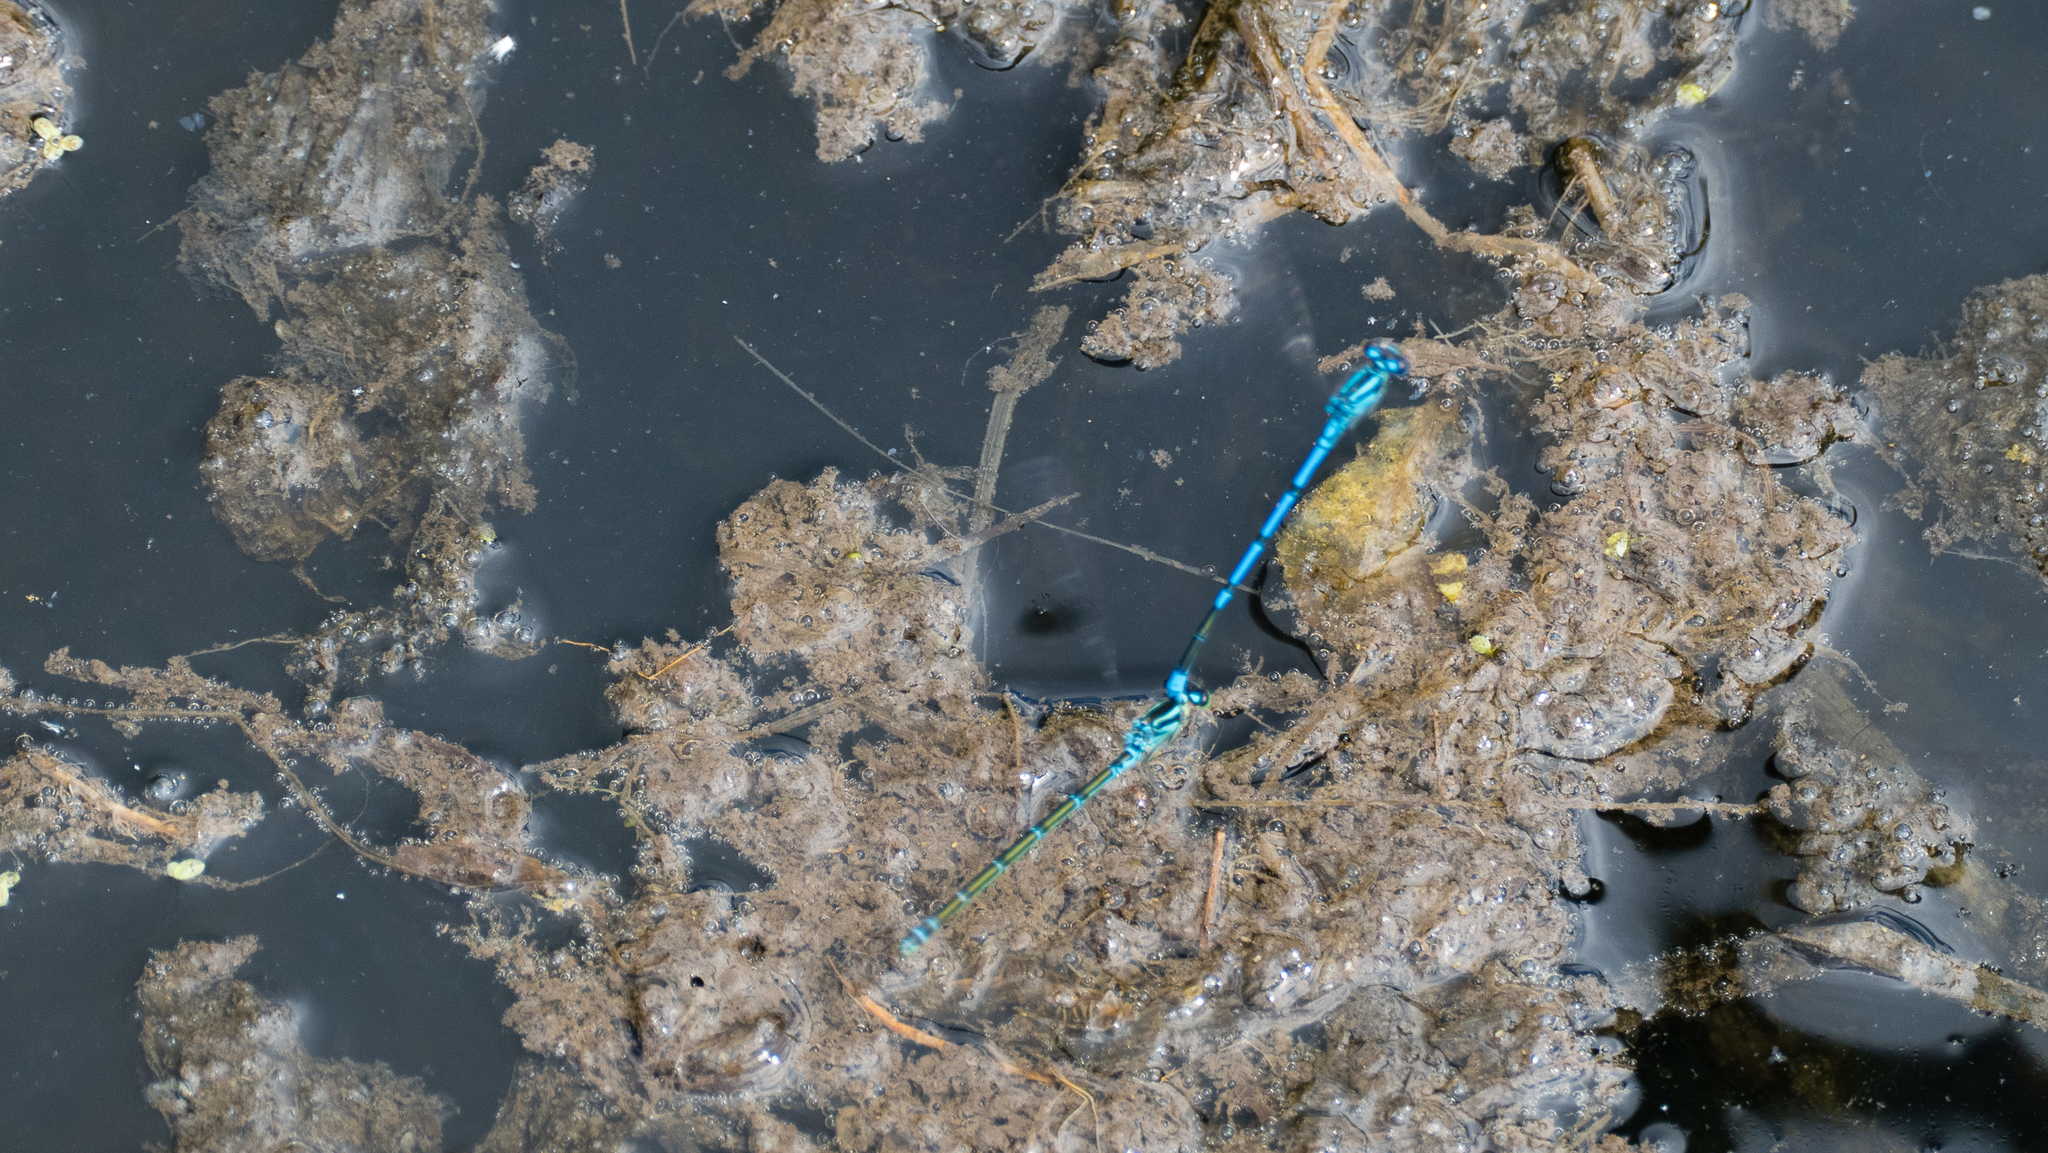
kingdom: Animalia
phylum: Arthropoda
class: Insecta
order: Odonata
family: Coenagrionidae
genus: Coenagrion
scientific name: Coenagrion puella
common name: Azure damselfly
